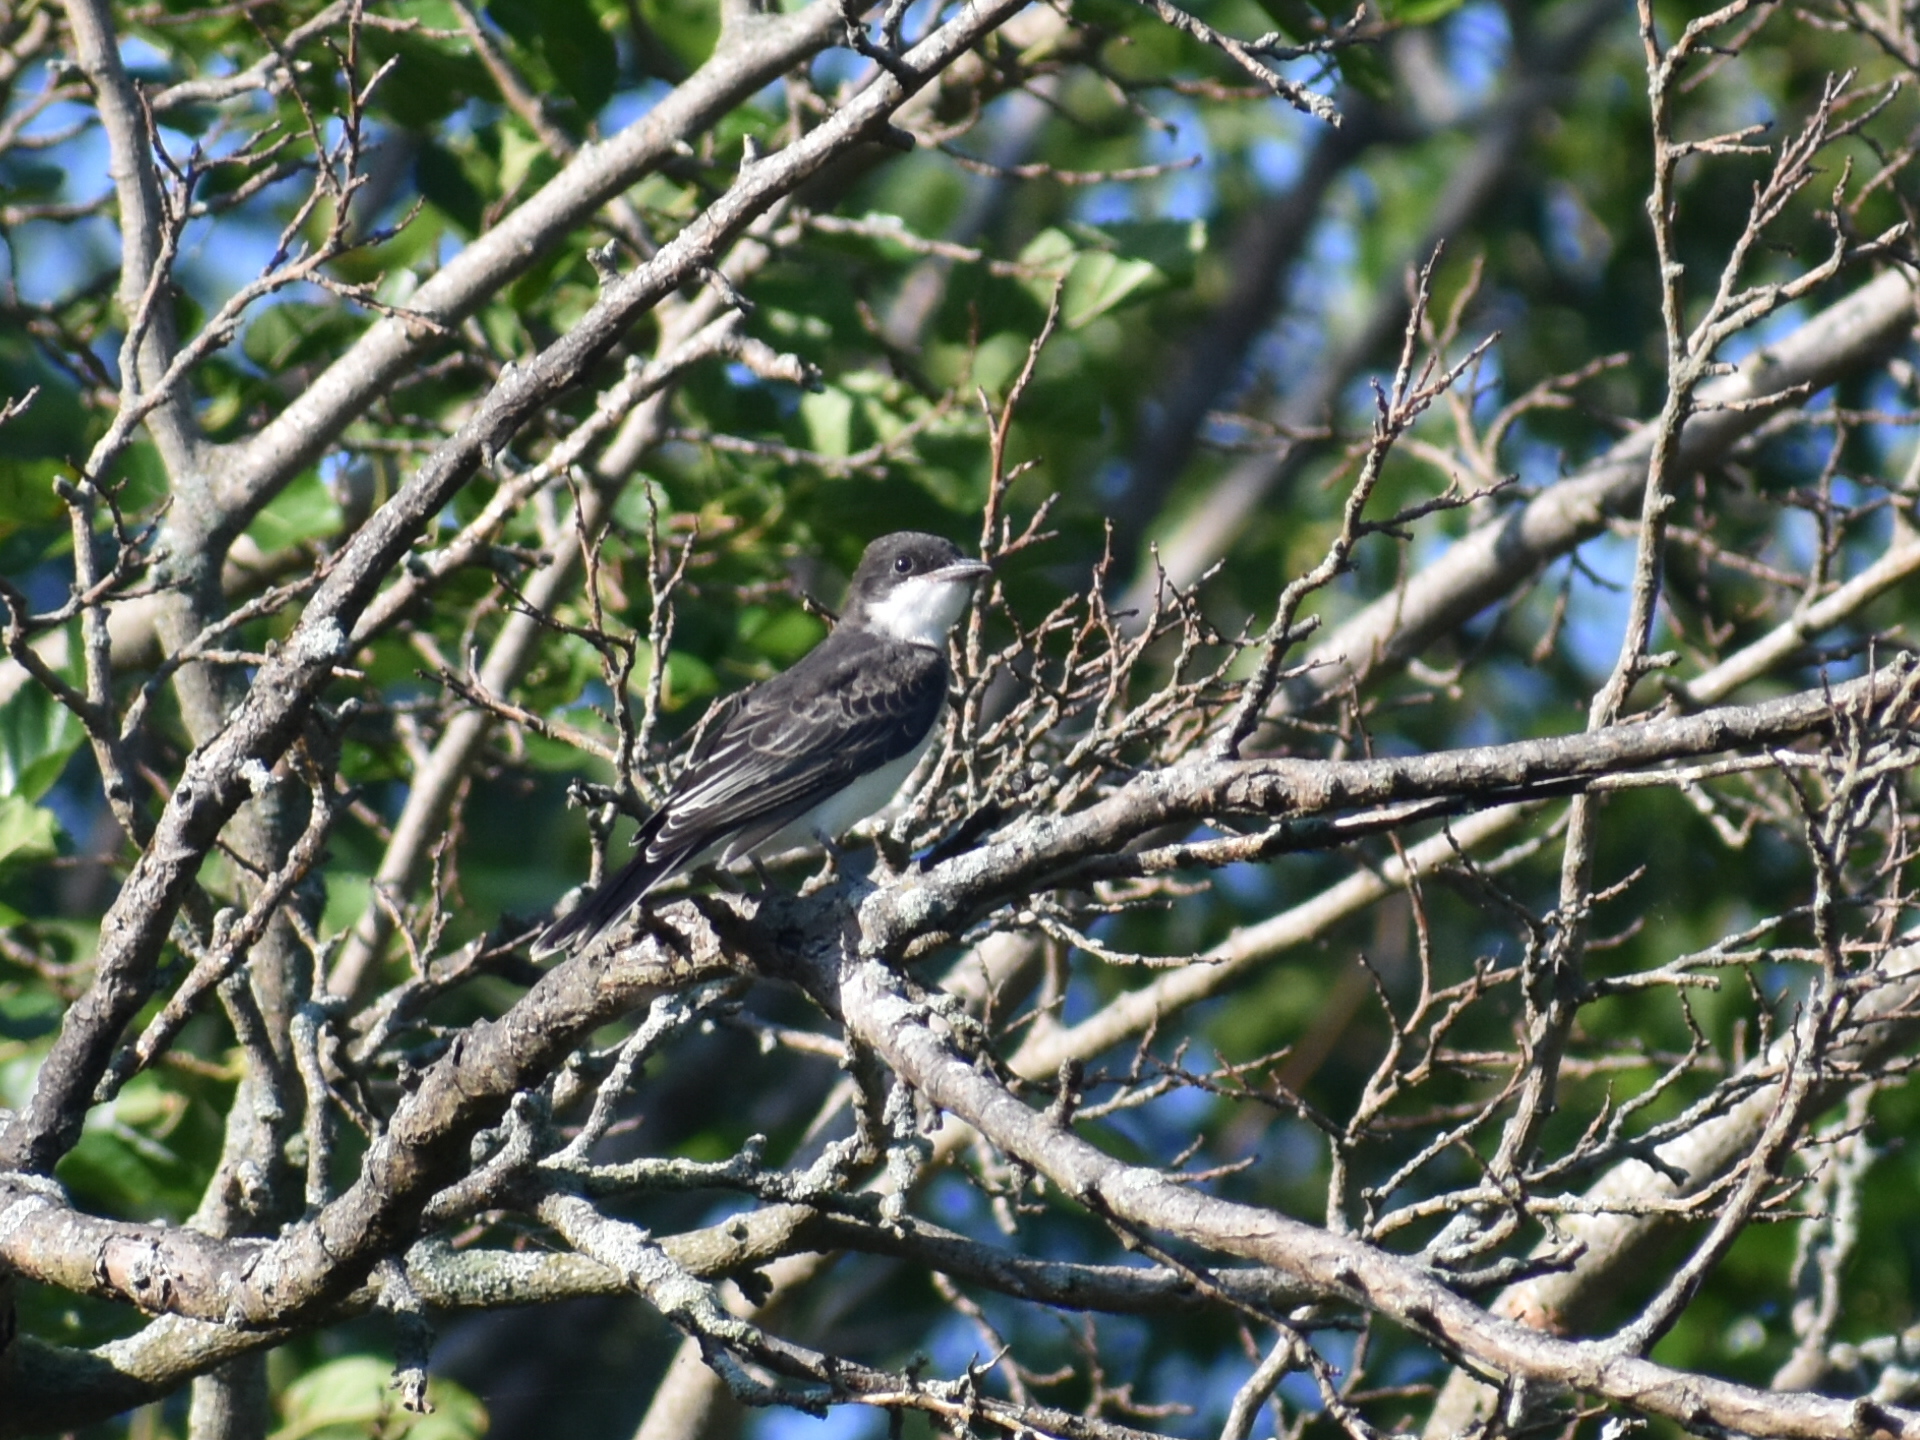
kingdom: Animalia
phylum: Chordata
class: Aves
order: Passeriformes
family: Tyrannidae
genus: Tyrannus
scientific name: Tyrannus tyrannus
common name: Eastern kingbird
